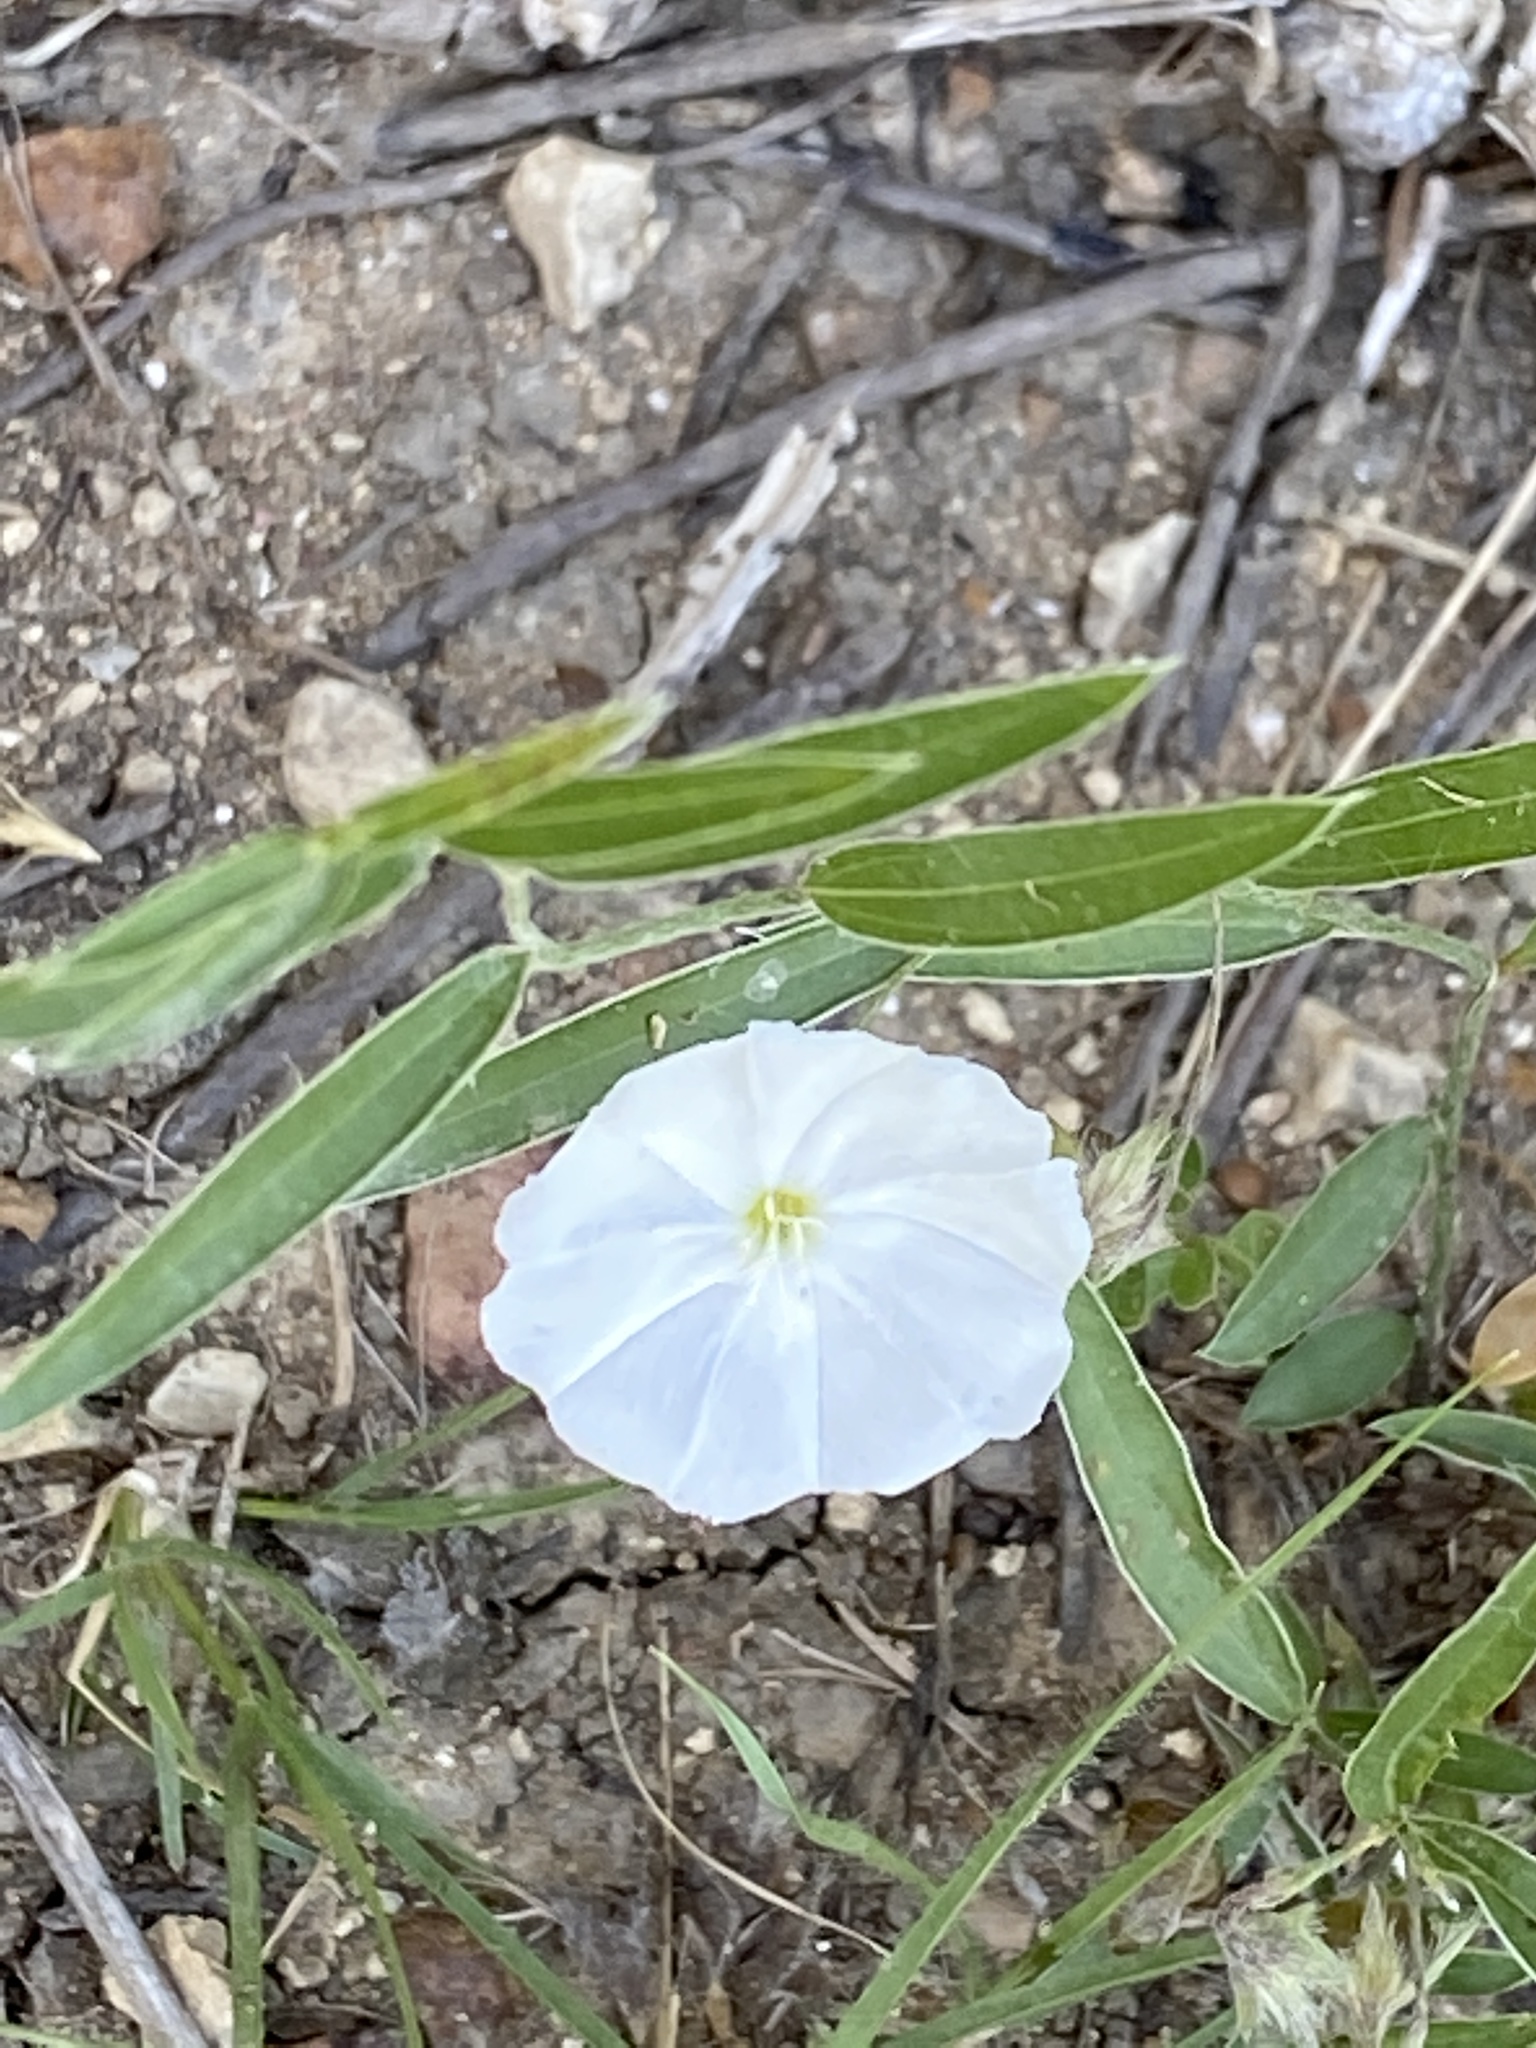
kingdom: Plantae
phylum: Tracheophyta
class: Magnoliopsida
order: Solanales
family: Convolvulaceae
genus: Evolvulus
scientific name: Evolvulus sericeus
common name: Blue dots
